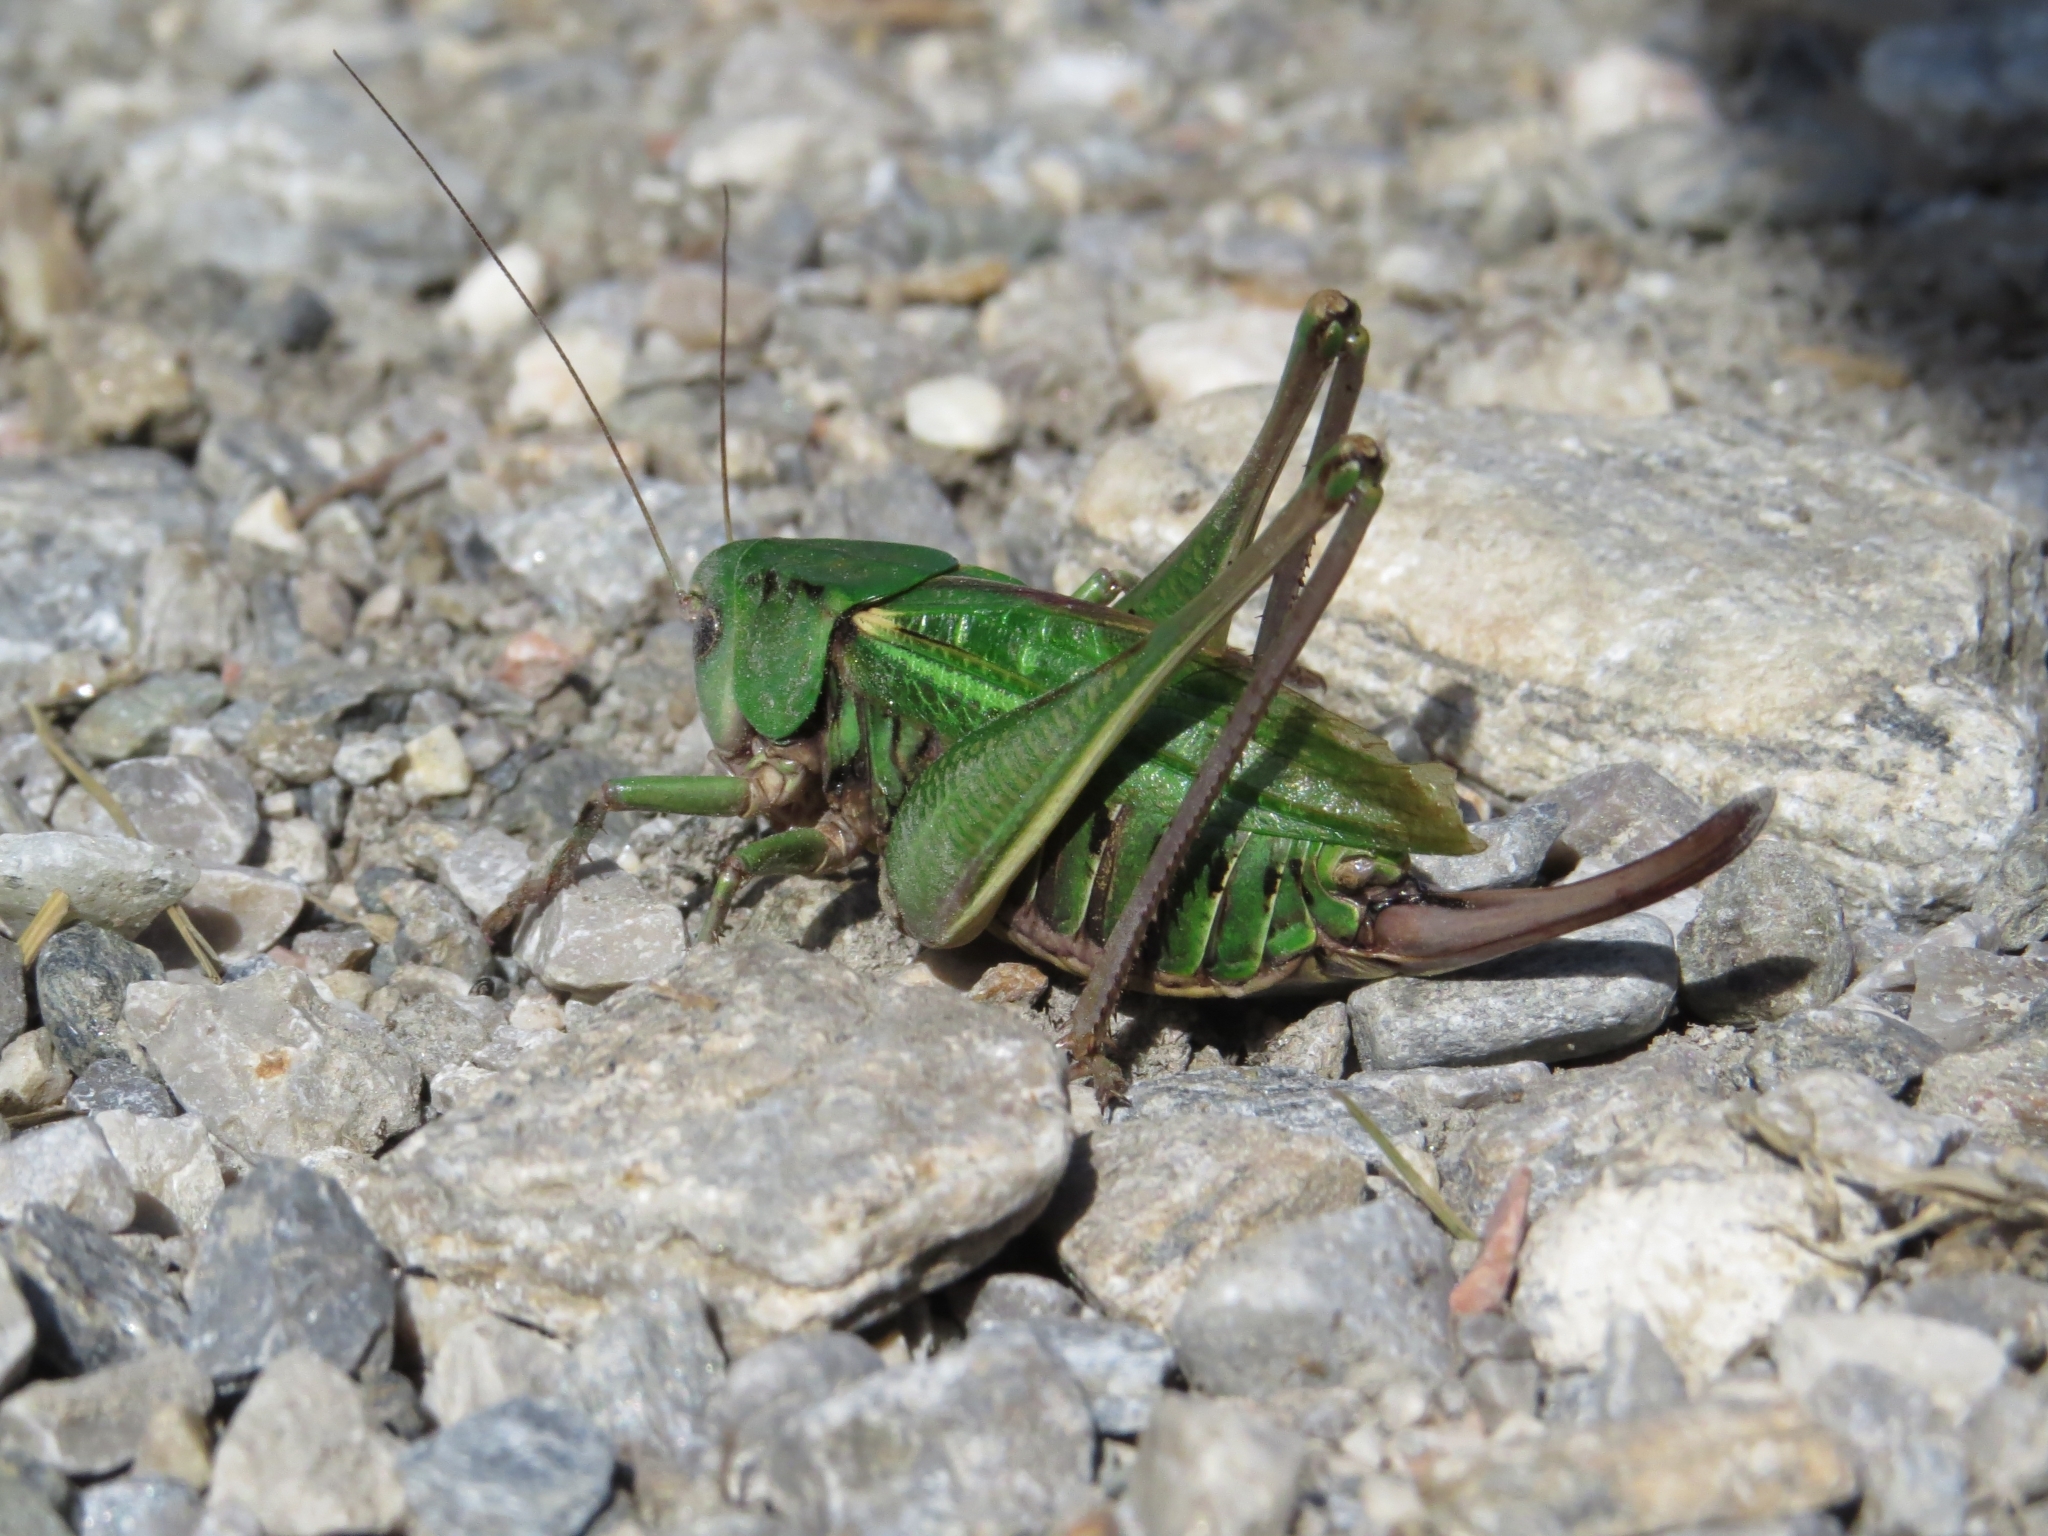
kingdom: Animalia
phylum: Arthropoda
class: Insecta
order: Orthoptera
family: Tettigoniidae
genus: Decticus
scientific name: Decticus verrucivorus
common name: Wart-biter
